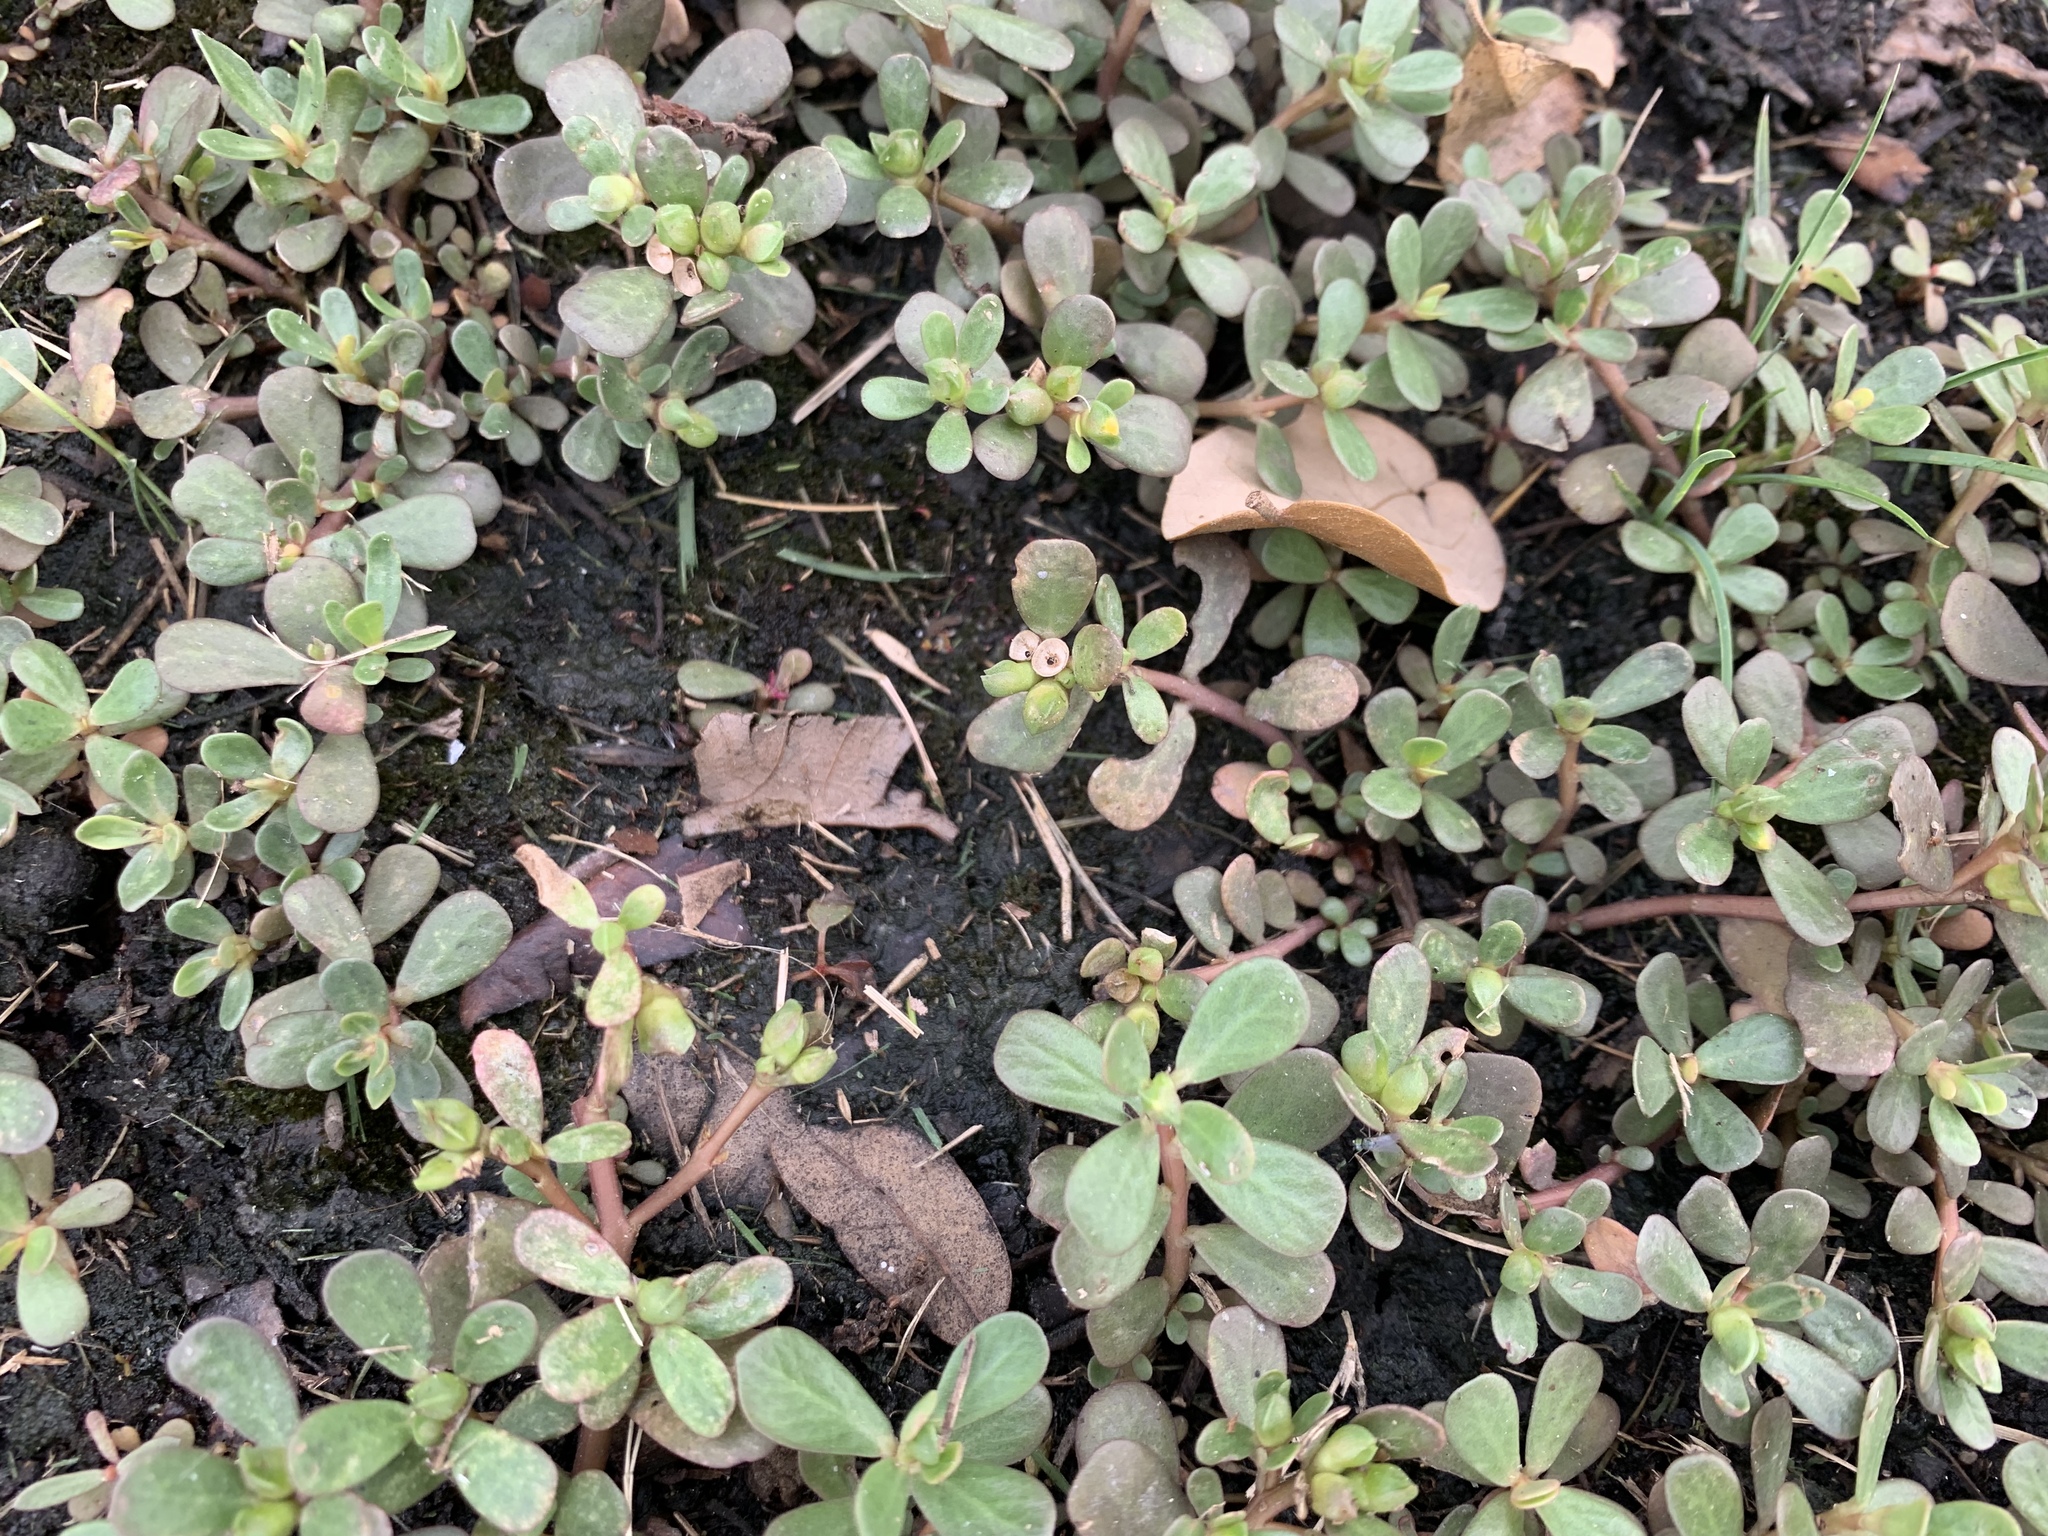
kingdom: Plantae
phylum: Tracheophyta
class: Magnoliopsida
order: Caryophyllales
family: Portulacaceae
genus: Portulaca
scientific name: Portulaca oleracea
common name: Common purslane
